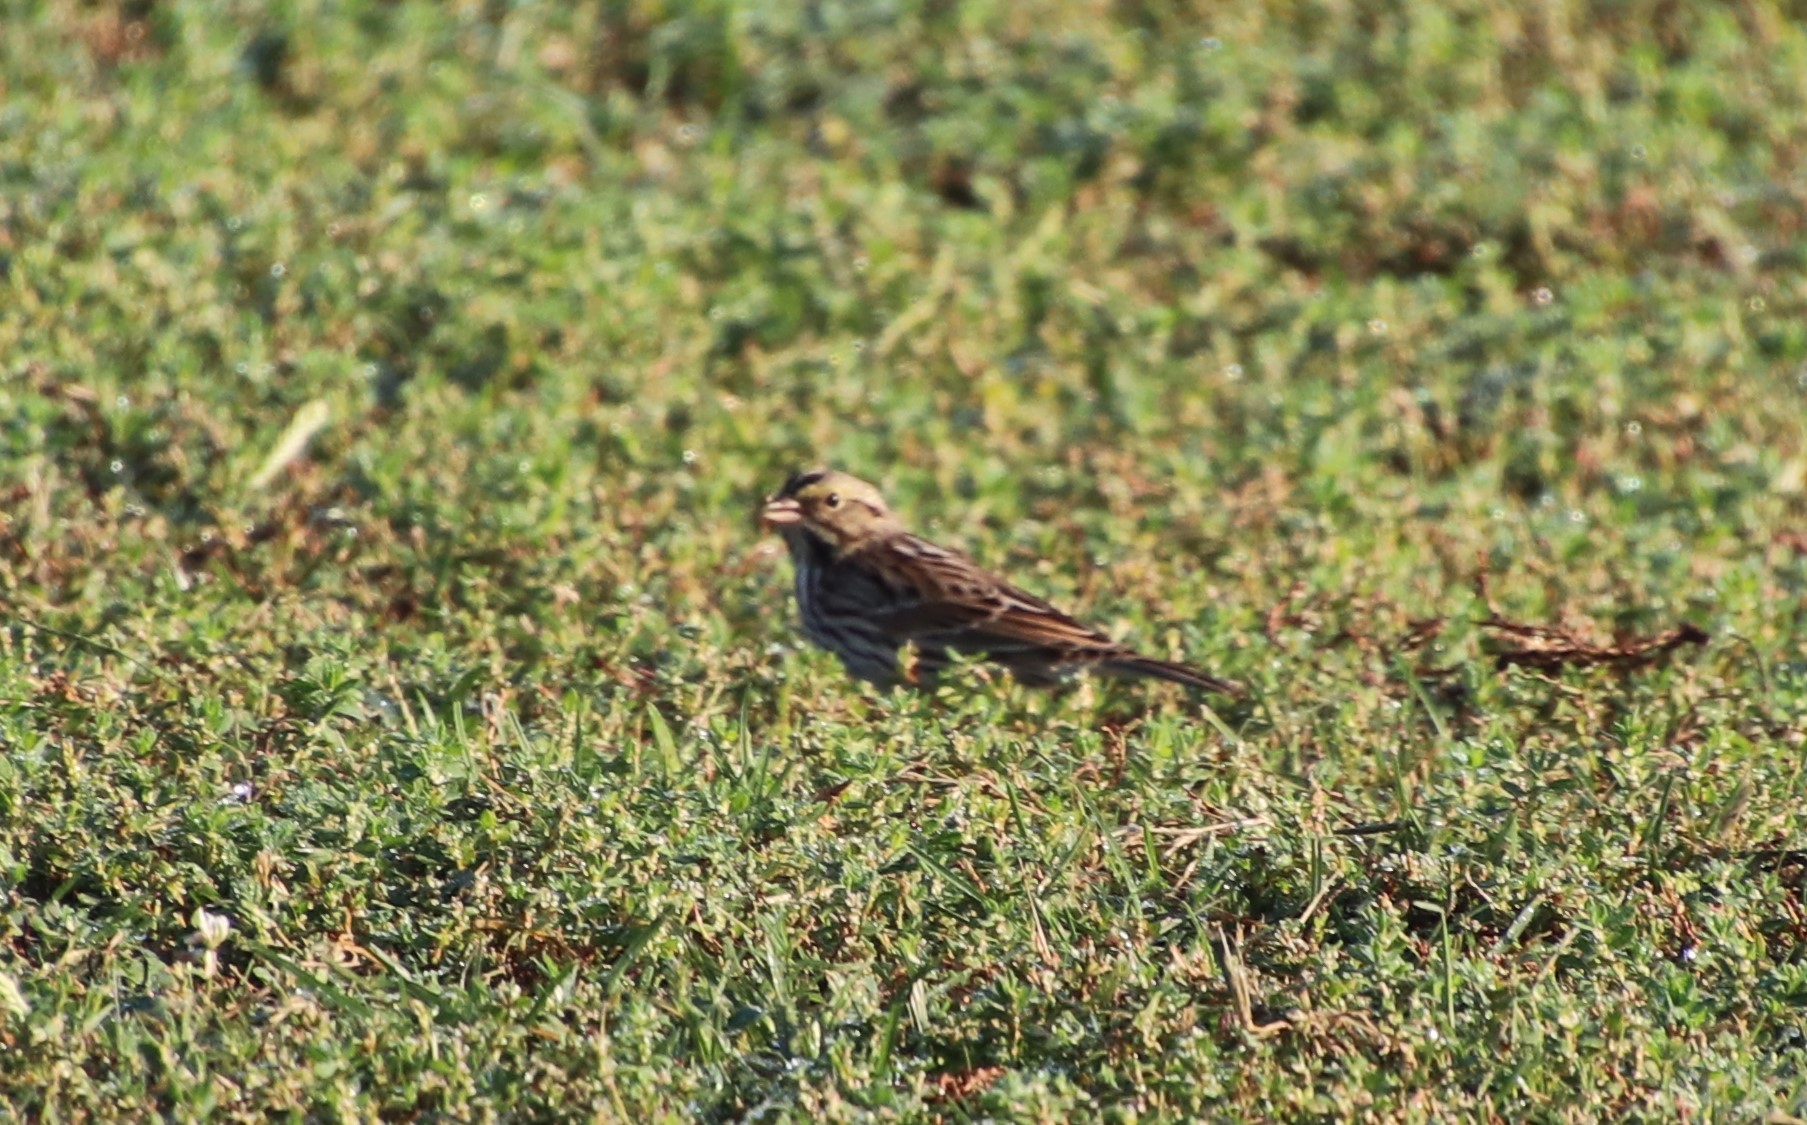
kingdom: Animalia
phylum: Chordata
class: Aves
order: Passeriformes
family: Passerellidae
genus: Passerculus
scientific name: Passerculus sandwichensis
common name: Savannah sparrow
